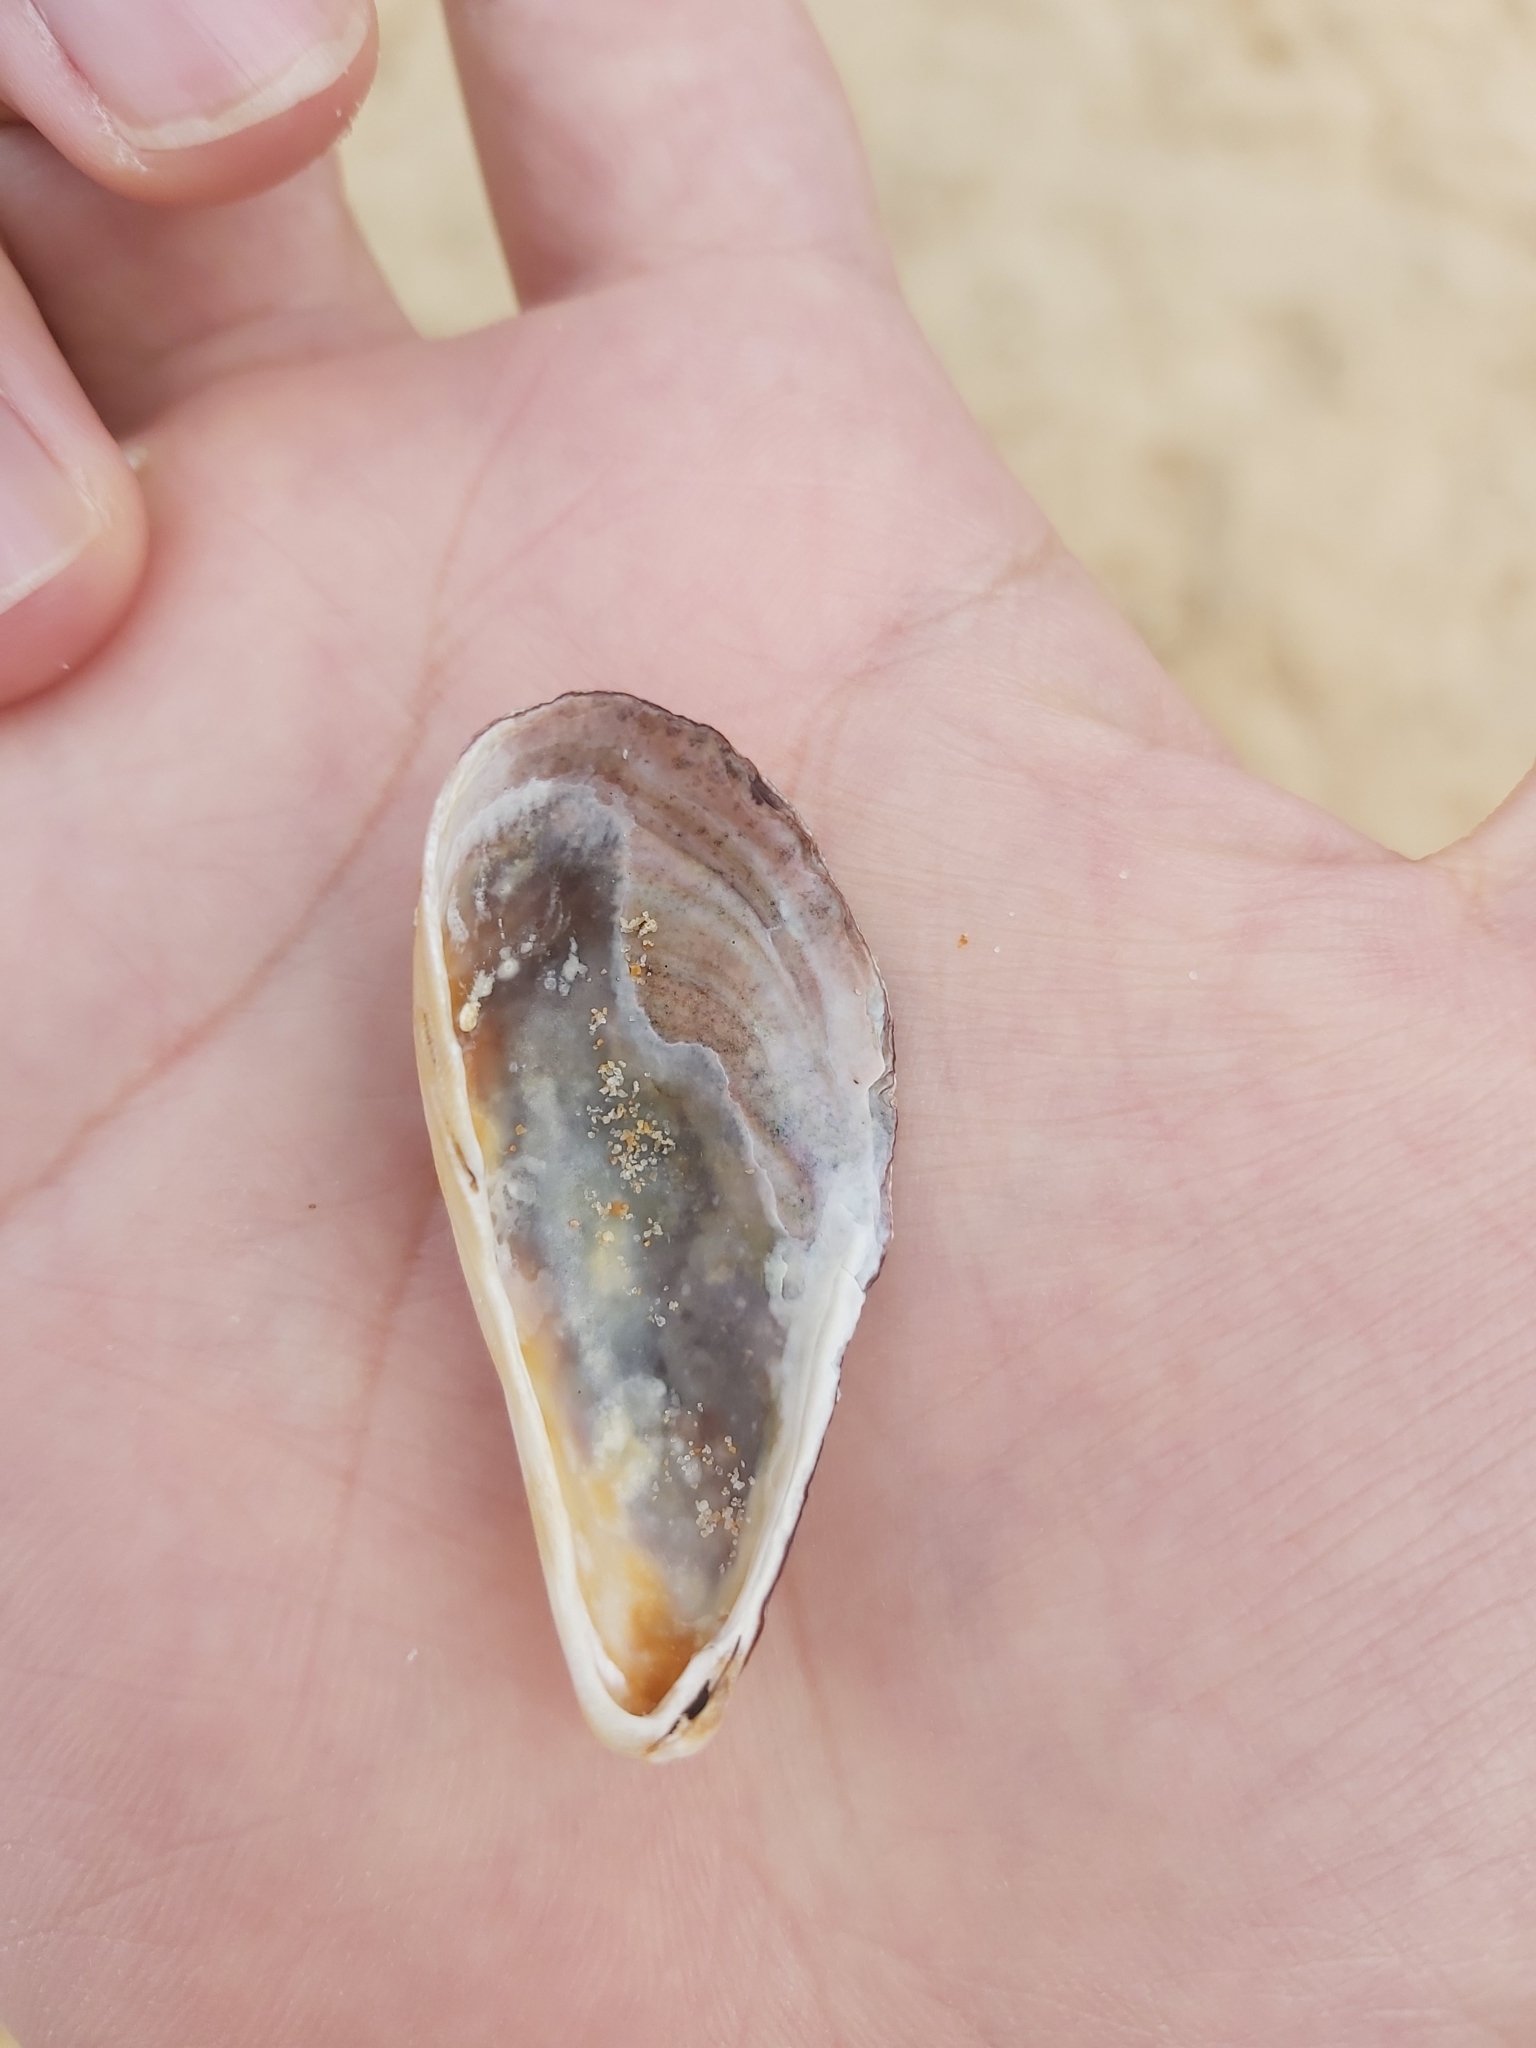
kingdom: Animalia
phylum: Mollusca
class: Bivalvia
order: Mytilida
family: Mytilidae
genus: Trichomya
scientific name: Trichomya hirsuta
